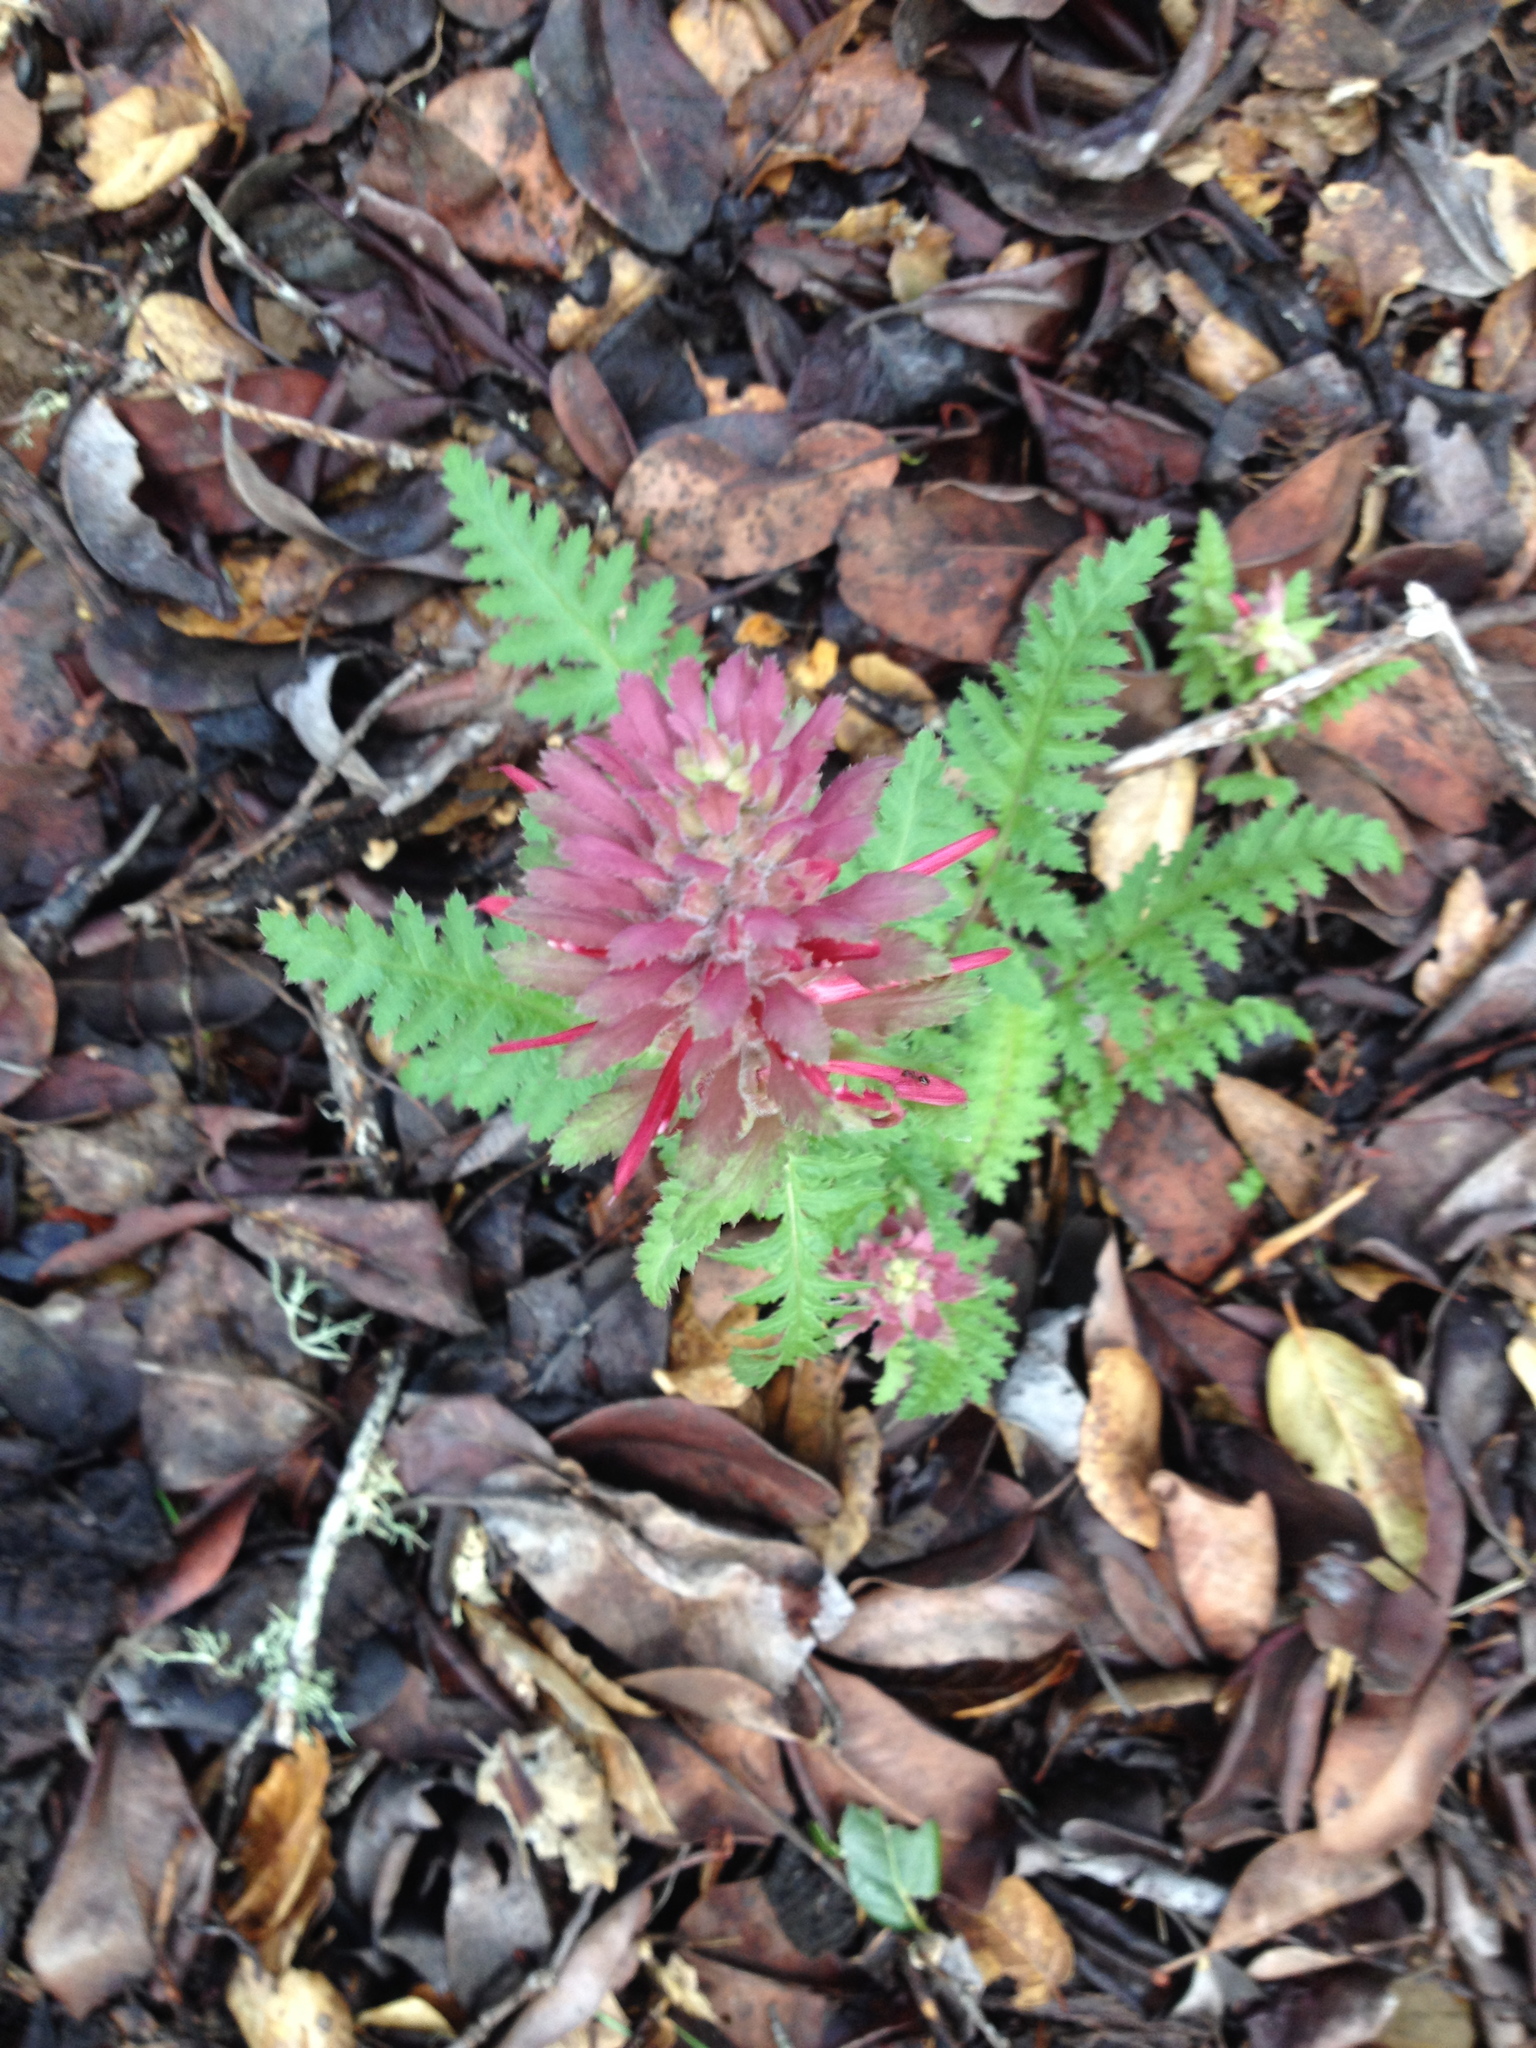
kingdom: Plantae
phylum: Tracheophyta
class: Magnoliopsida
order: Lamiales
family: Orobanchaceae
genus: Pedicularis
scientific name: Pedicularis densiflora
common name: Indian warrior
